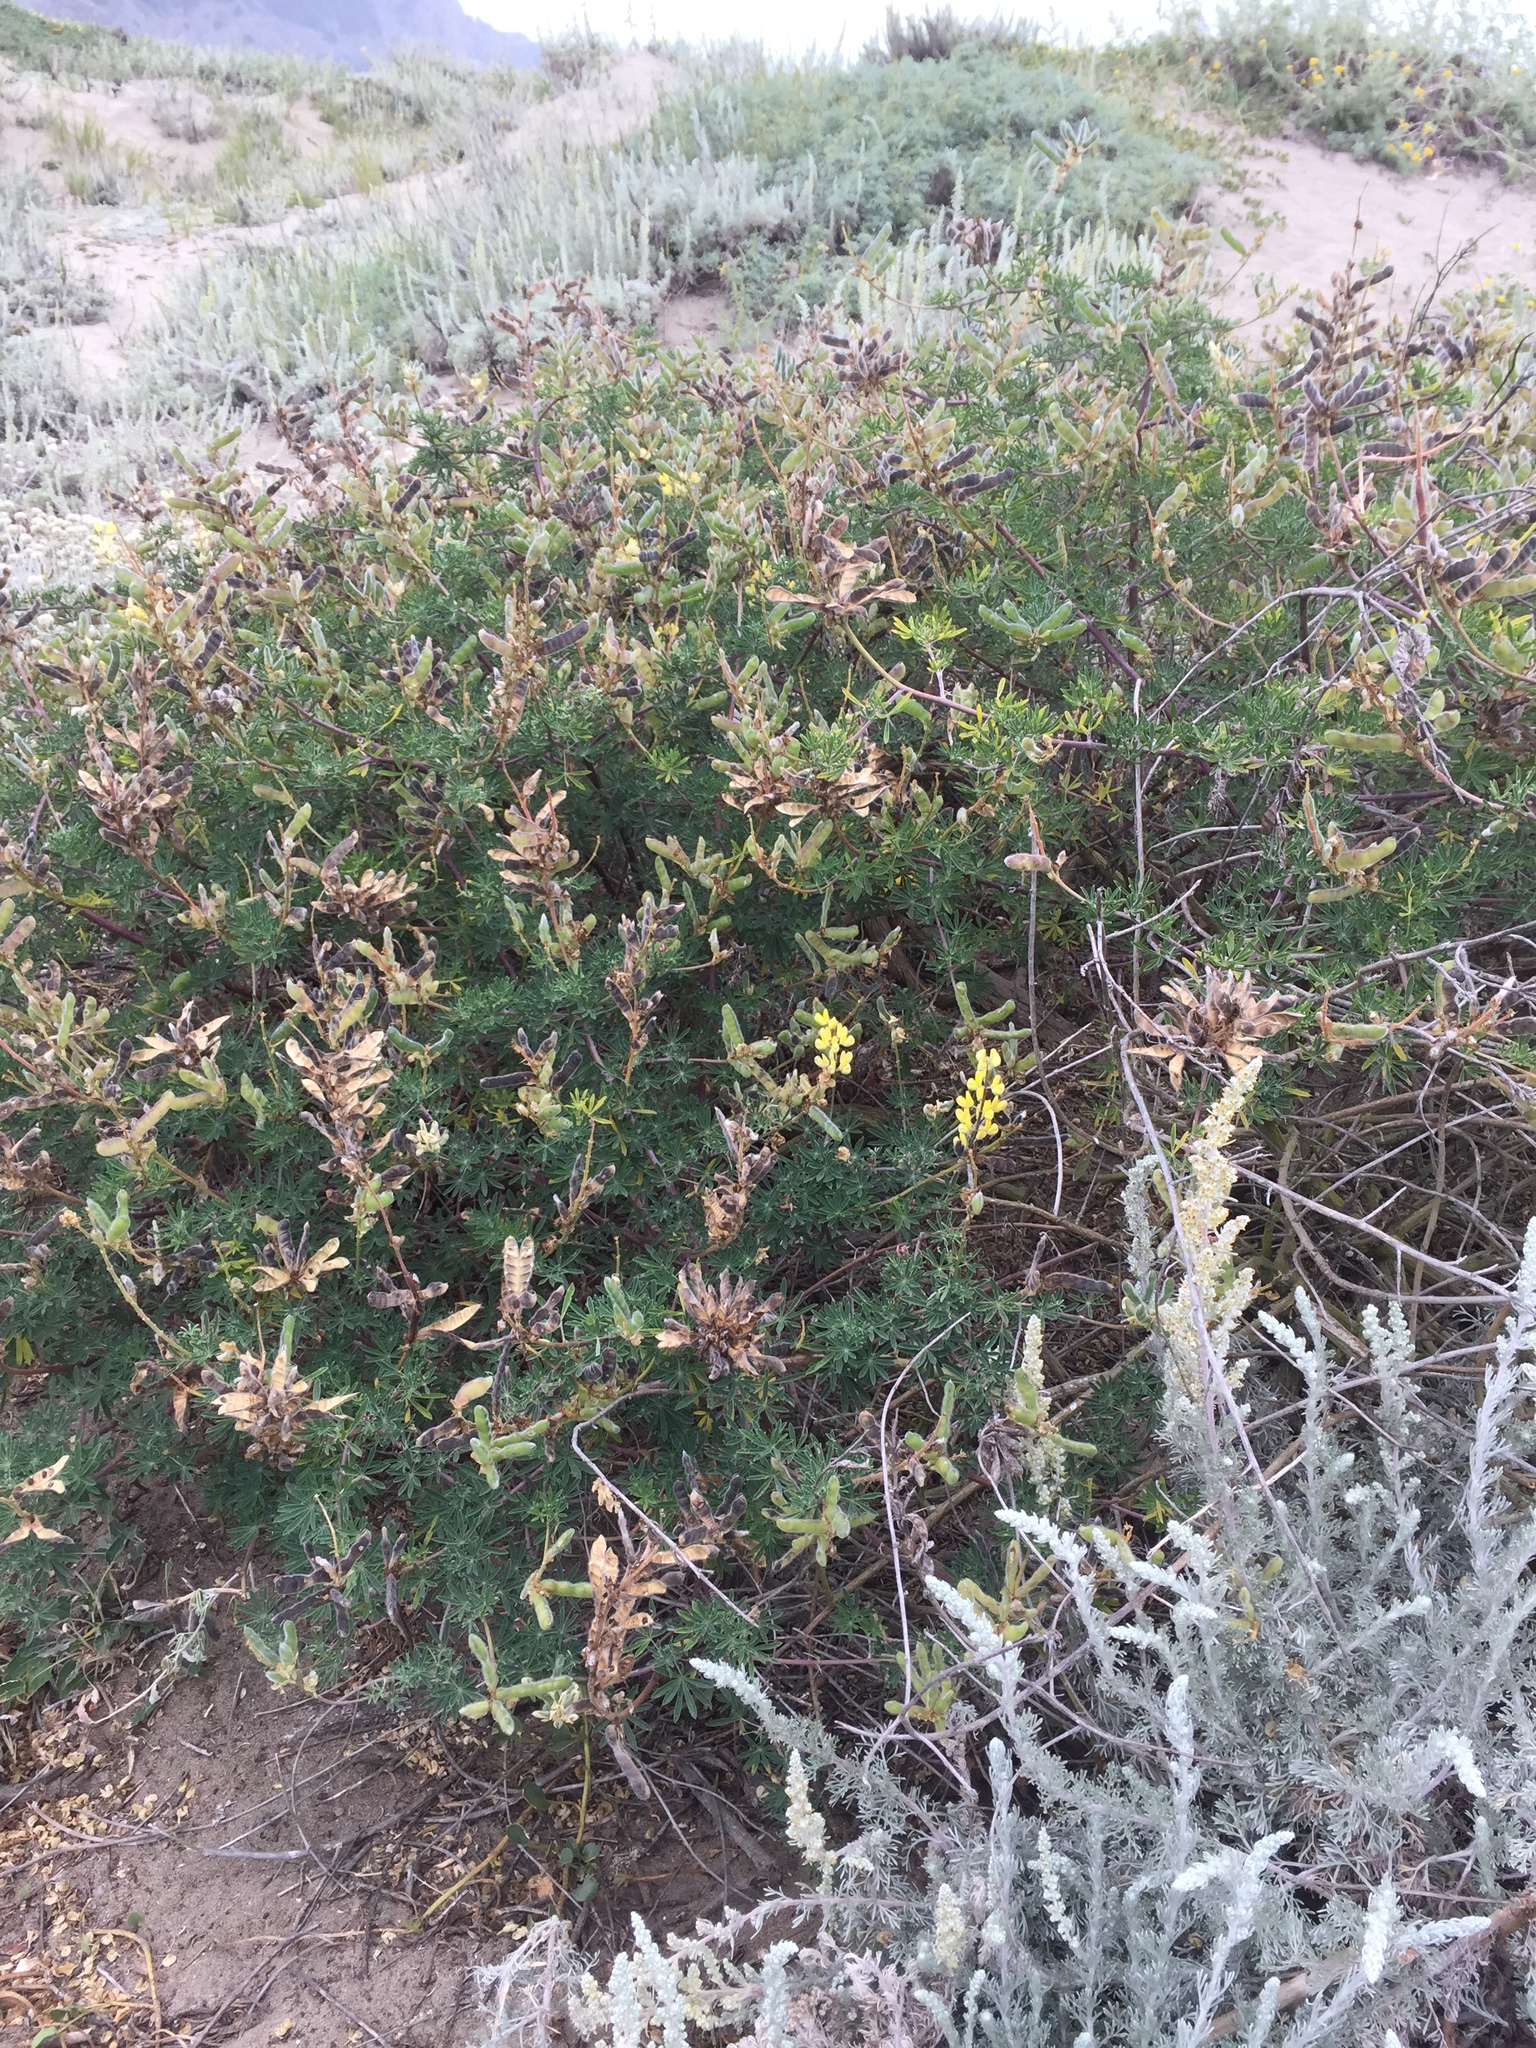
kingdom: Plantae
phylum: Tracheophyta
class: Magnoliopsida
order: Fabales
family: Fabaceae
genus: Lupinus
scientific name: Lupinus arboreus
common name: Yellow bush lupine
